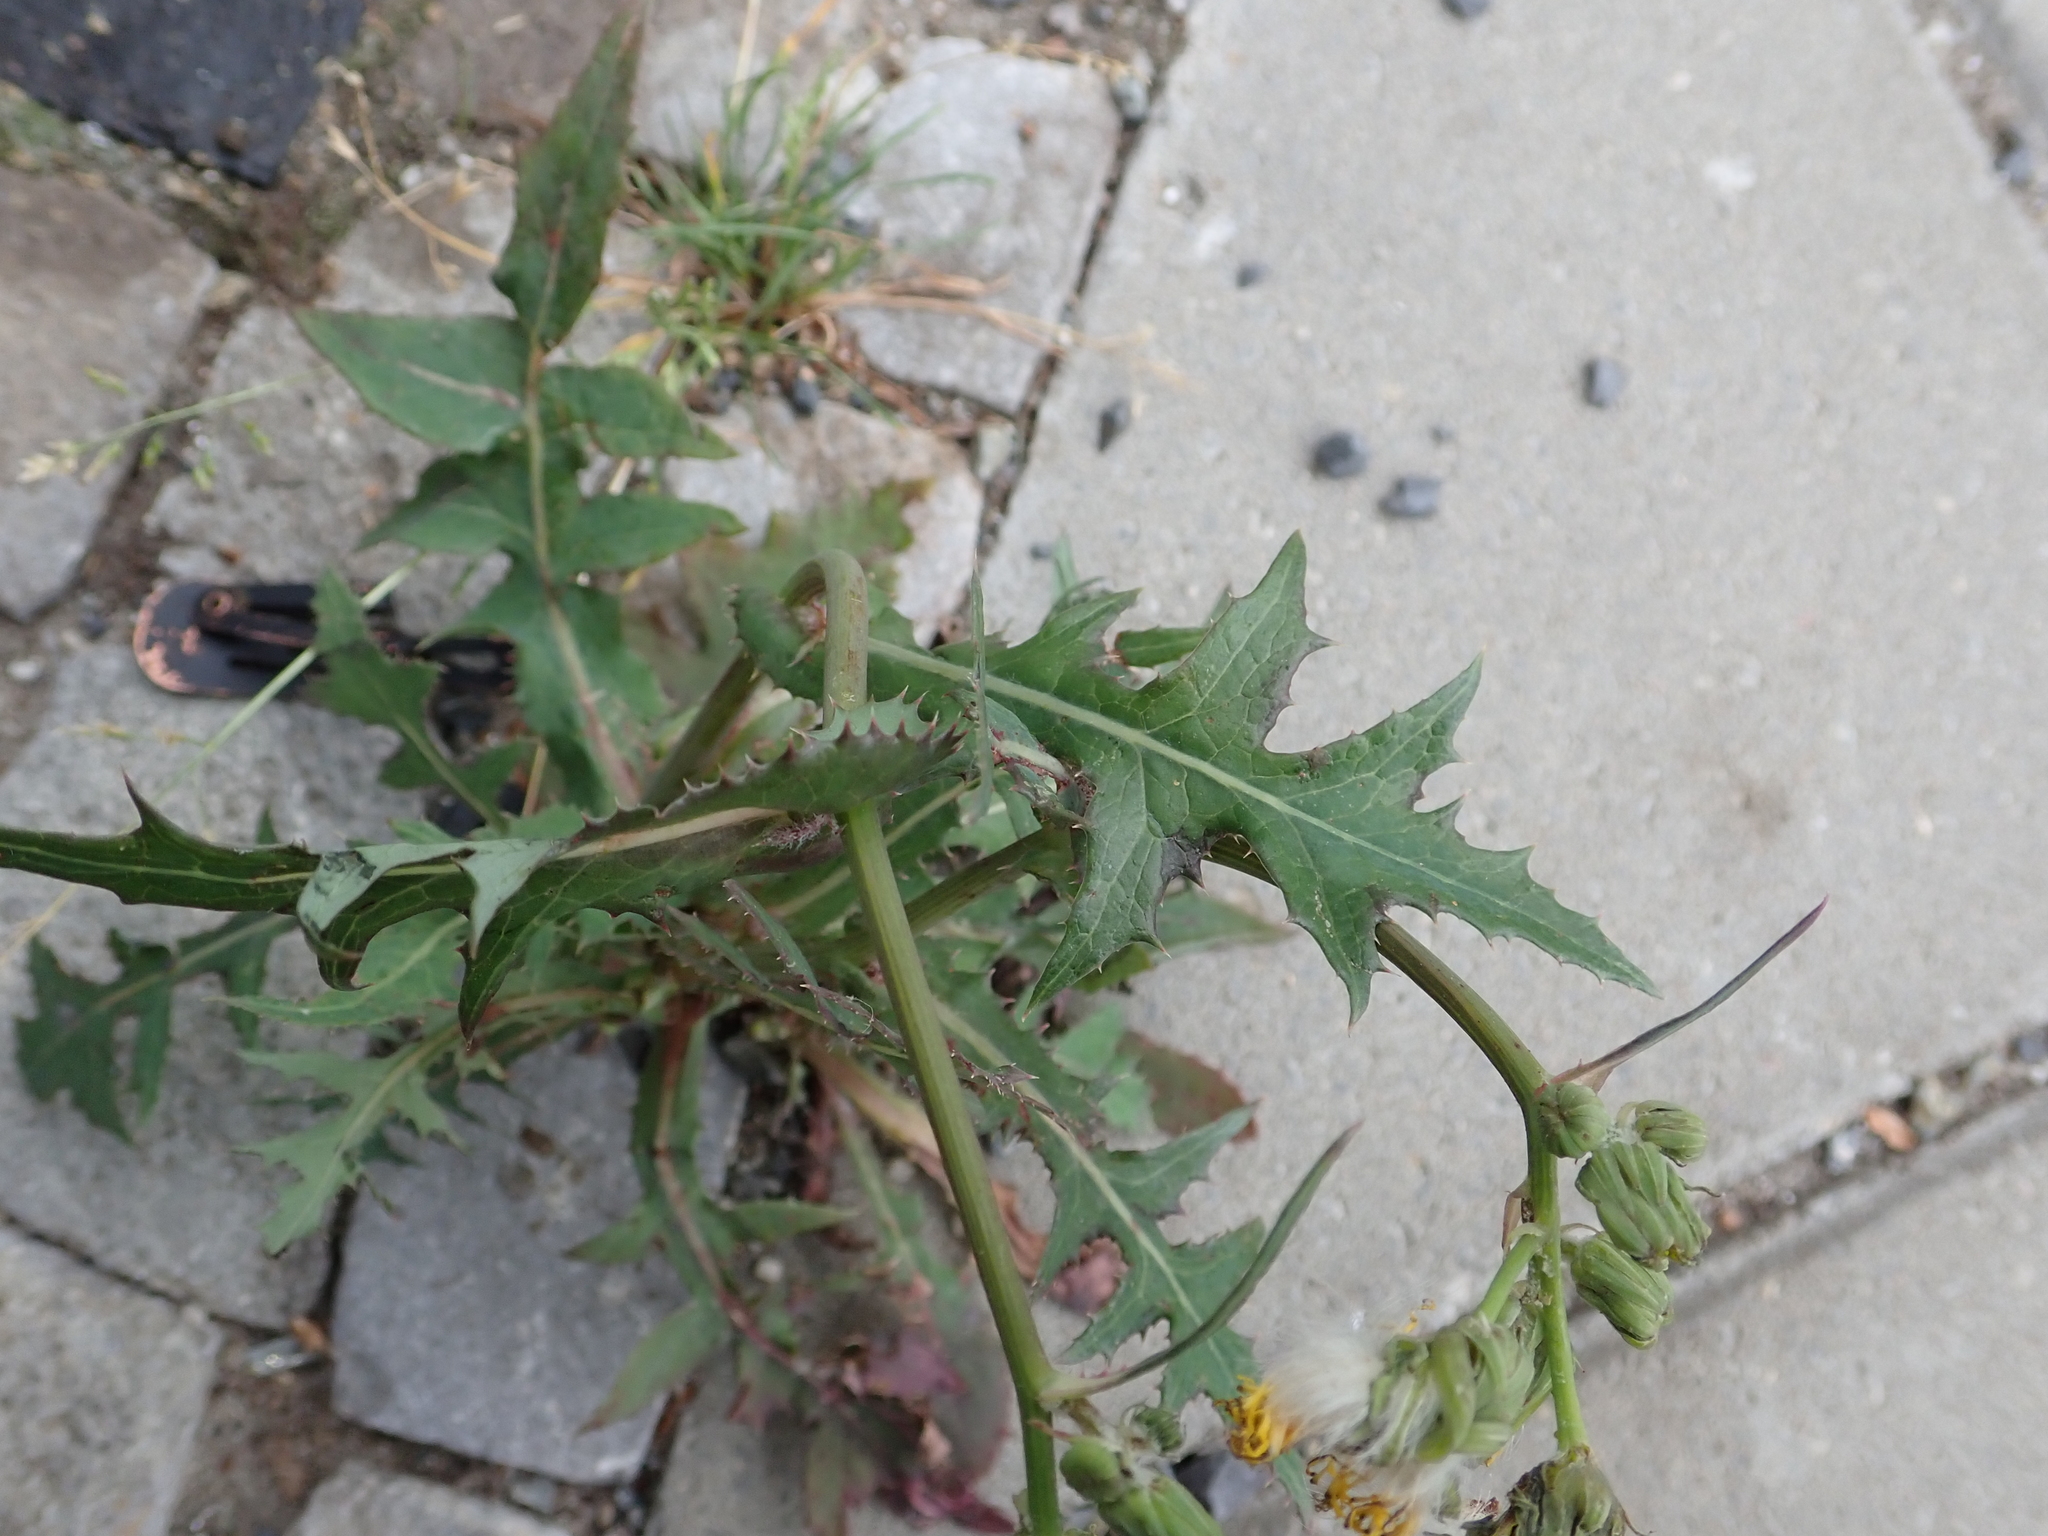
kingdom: Plantae
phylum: Tracheophyta
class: Magnoliopsida
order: Asterales
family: Asteraceae
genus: Sonchus
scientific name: Sonchus oleraceus
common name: Common sowthistle
